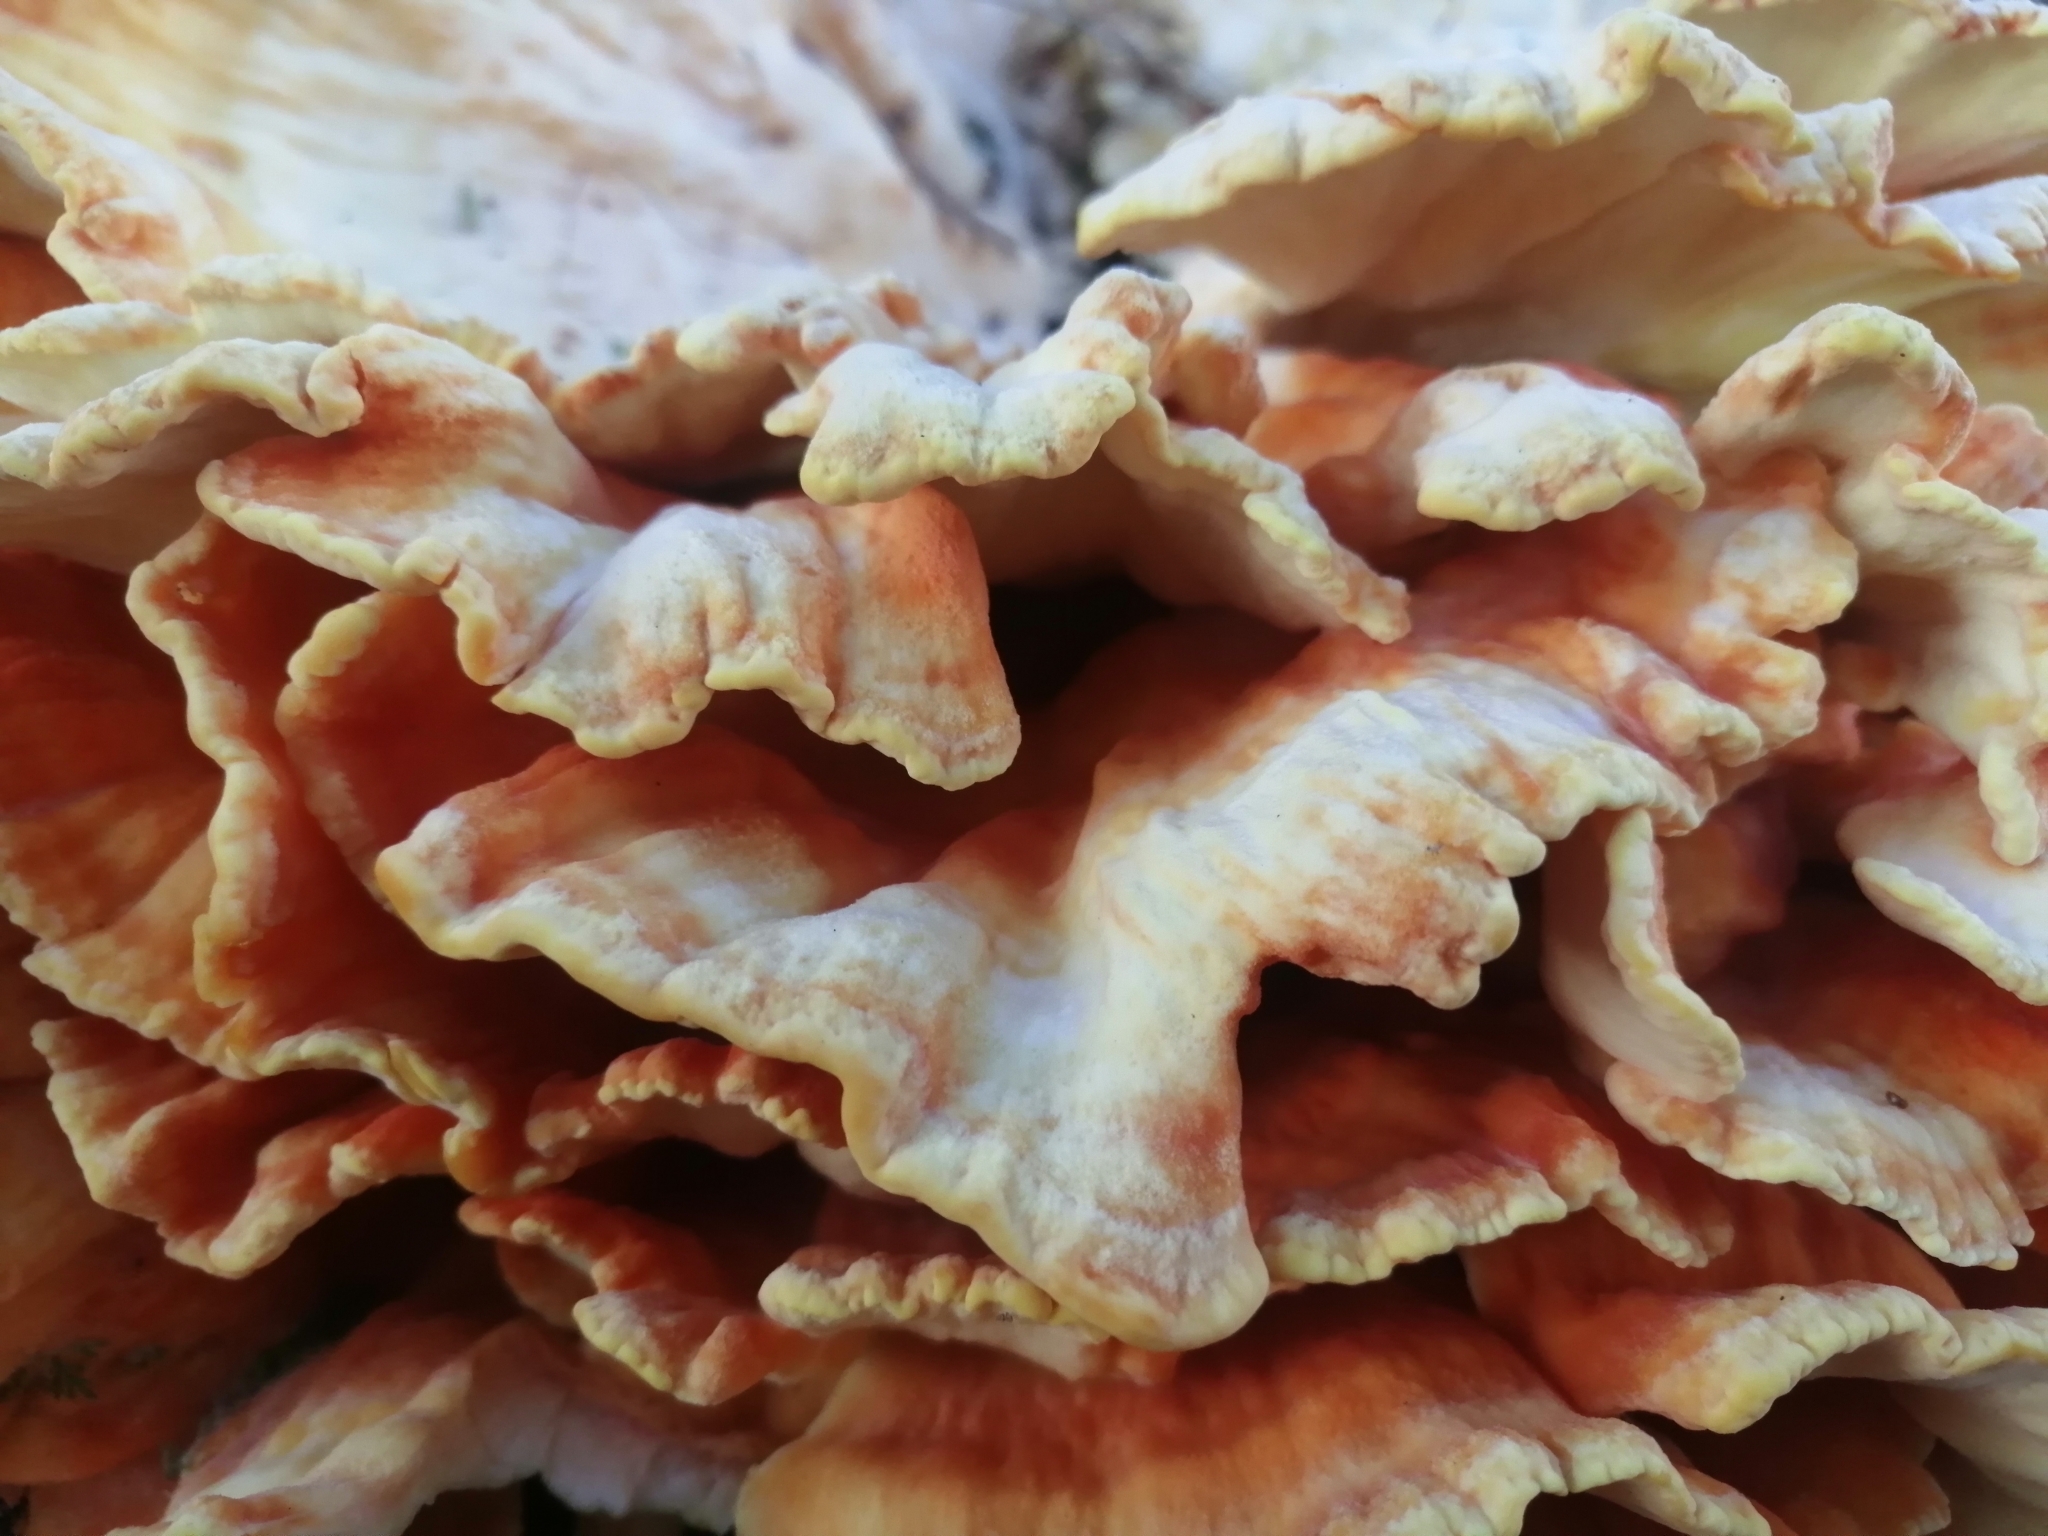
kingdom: Fungi
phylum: Basidiomycota
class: Agaricomycetes
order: Polyporales
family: Laetiporaceae
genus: Laetiporus
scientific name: Laetiporus sulphureus
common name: Chicken of the woods
